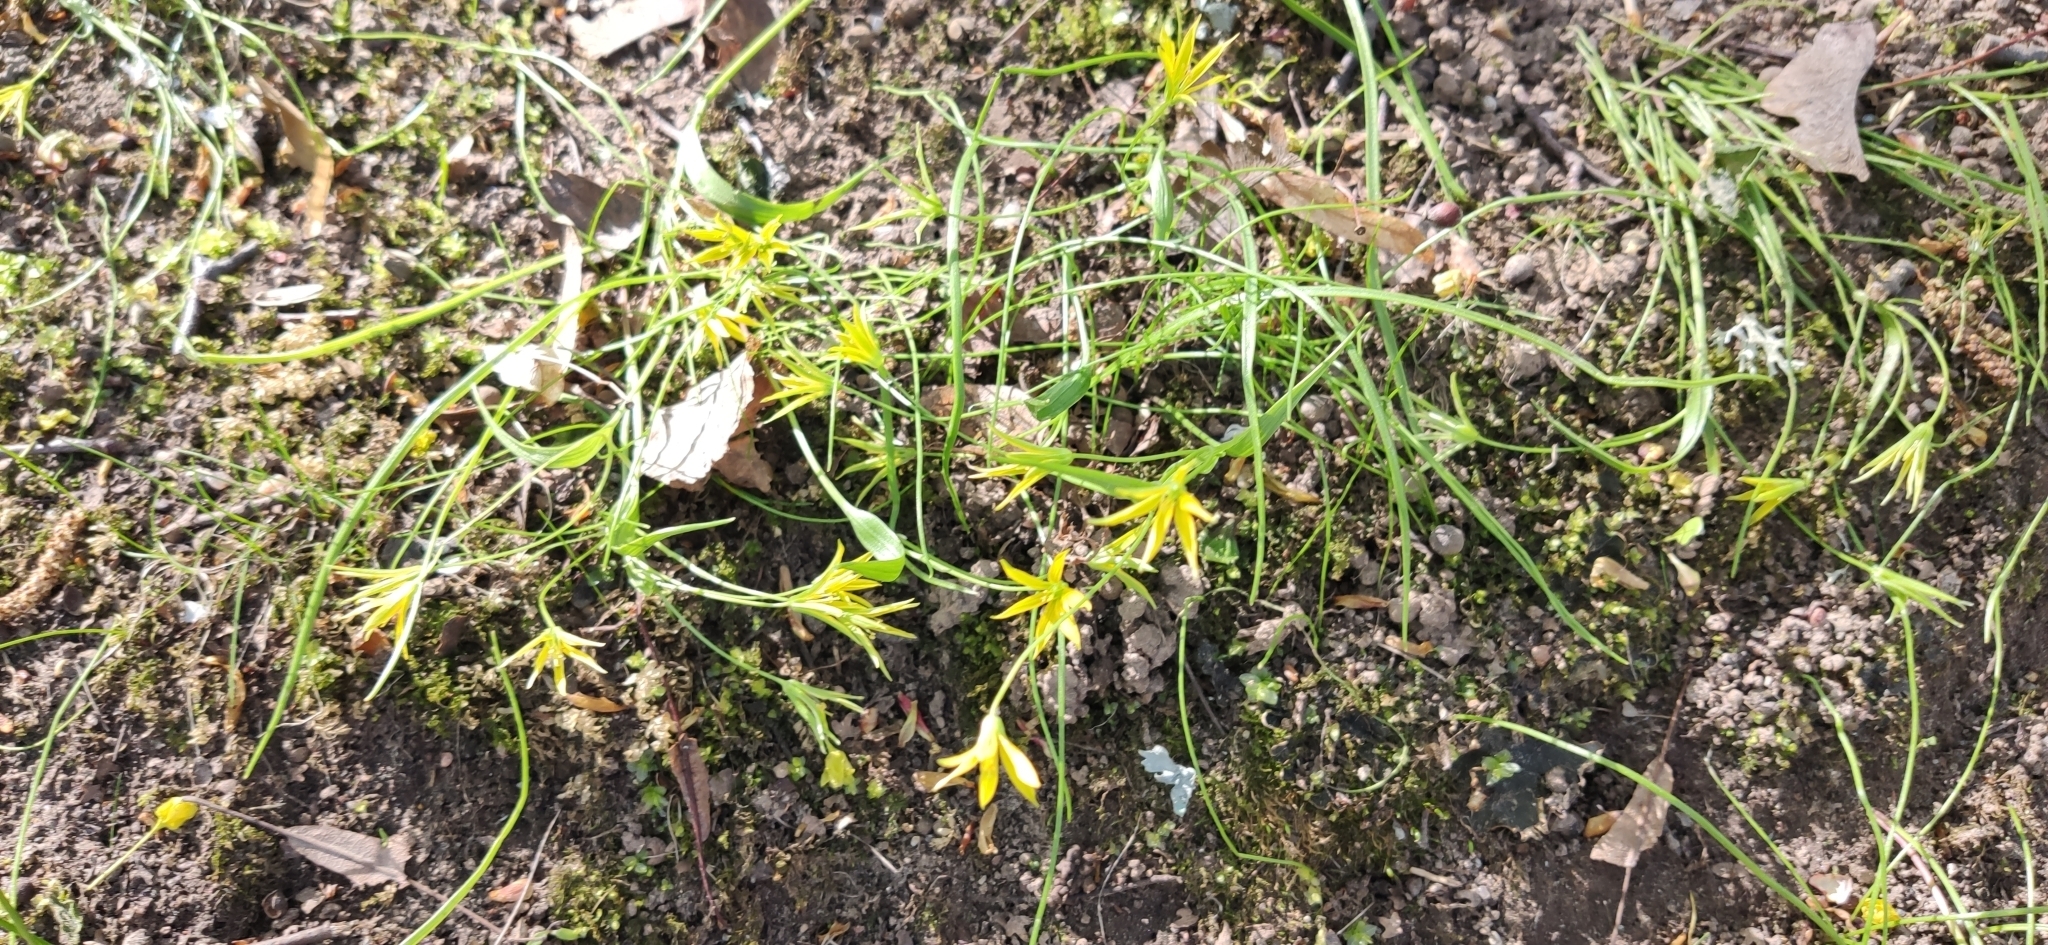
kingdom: Plantae
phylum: Tracheophyta
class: Liliopsida
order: Liliales
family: Liliaceae
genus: Gagea
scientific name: Gagea minima
